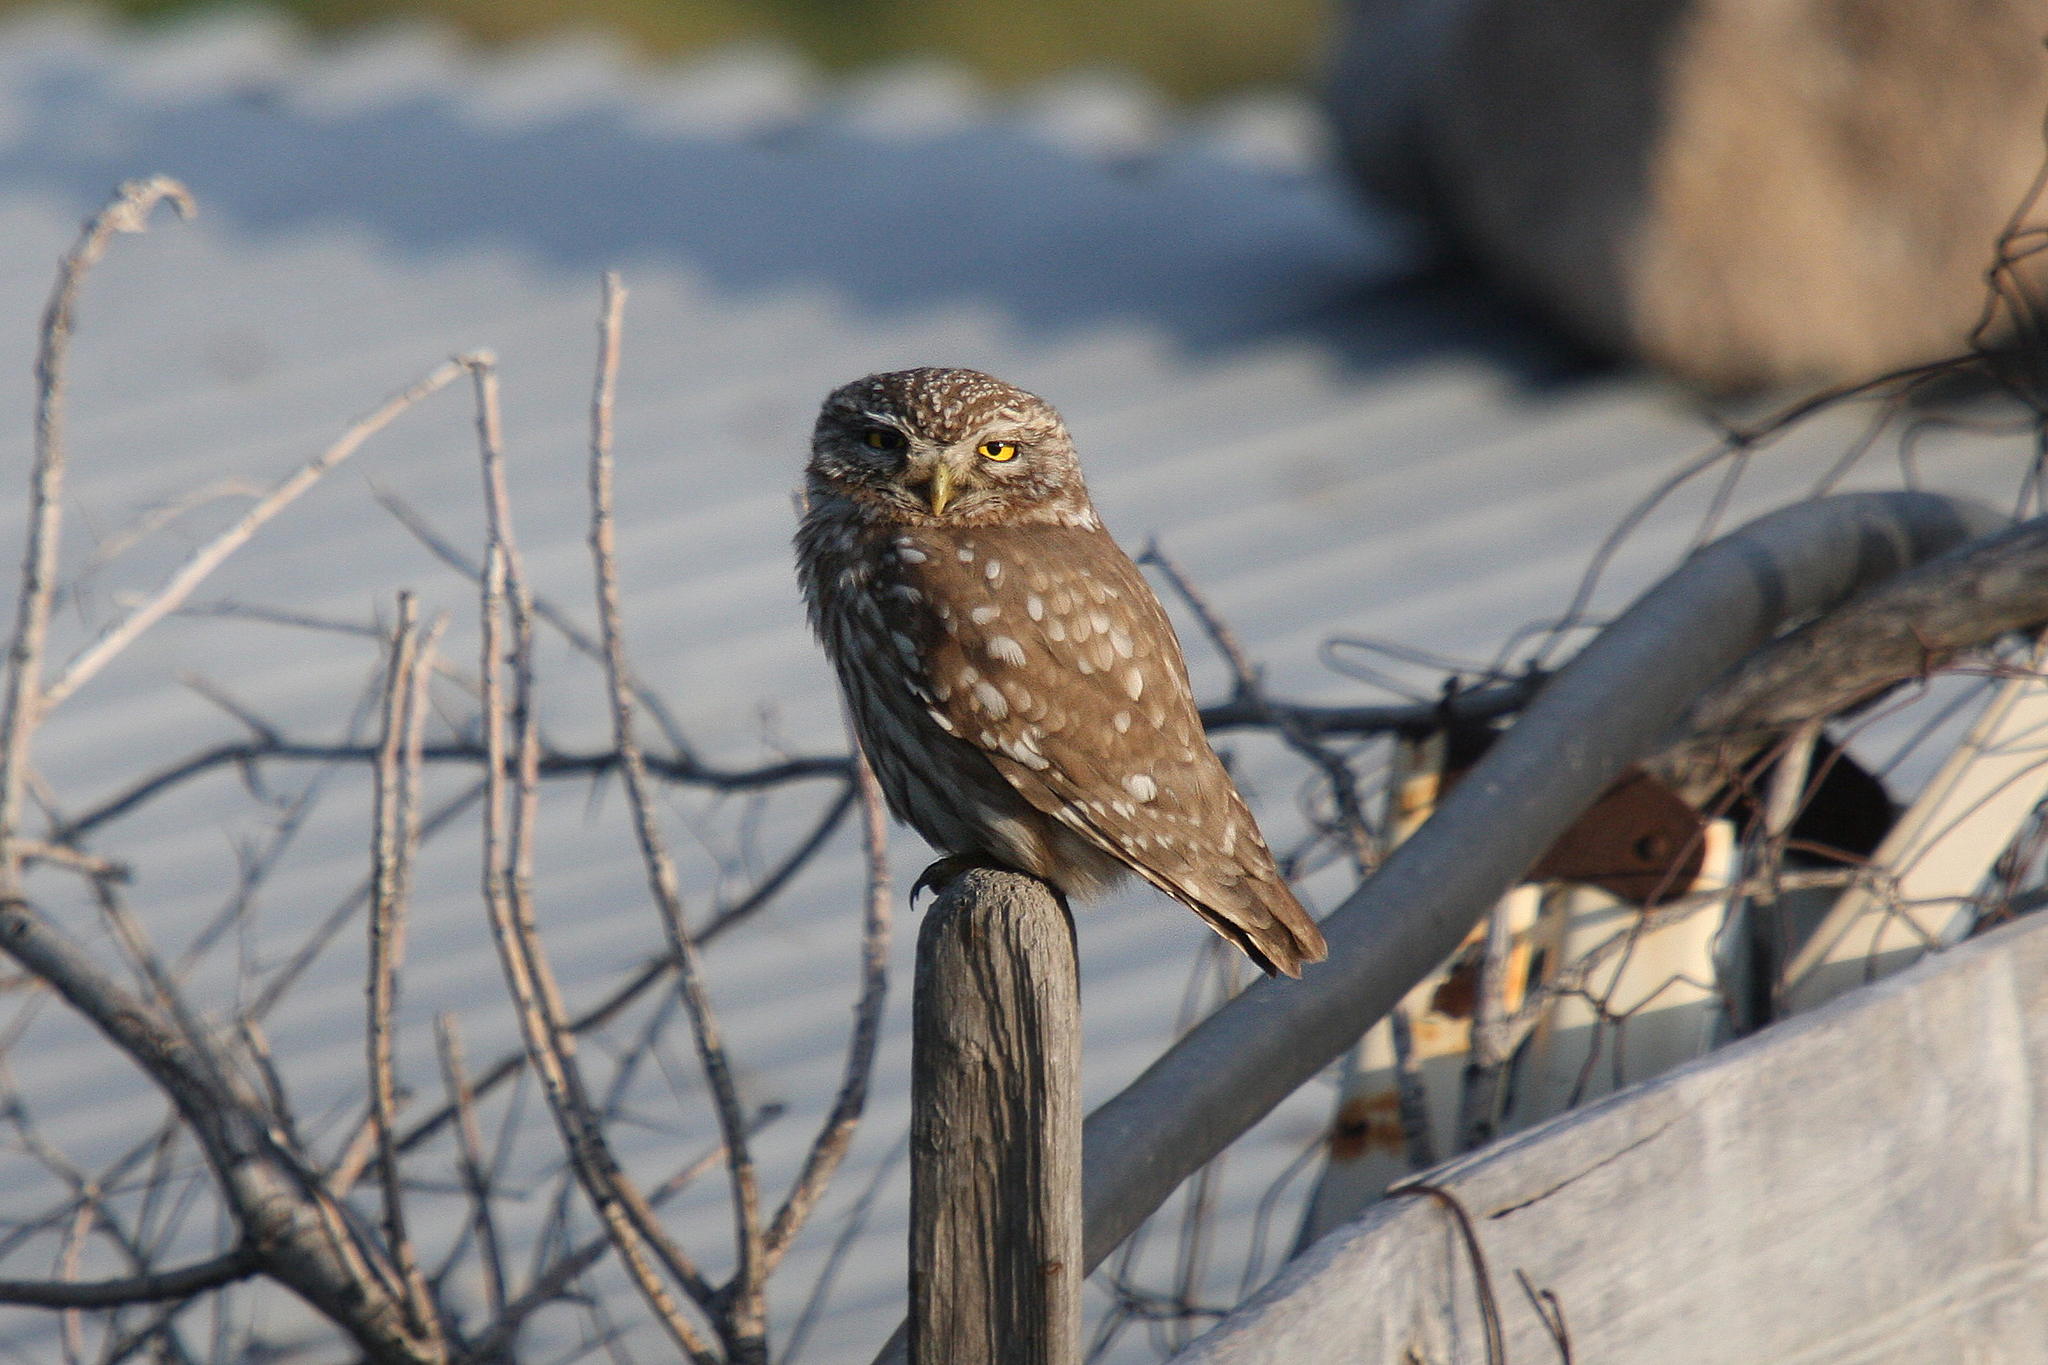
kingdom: Animalia
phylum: Chordata
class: Aves
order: Strigiformes
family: Strigidae
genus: Athene
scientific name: Athene noctua
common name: Little owl
